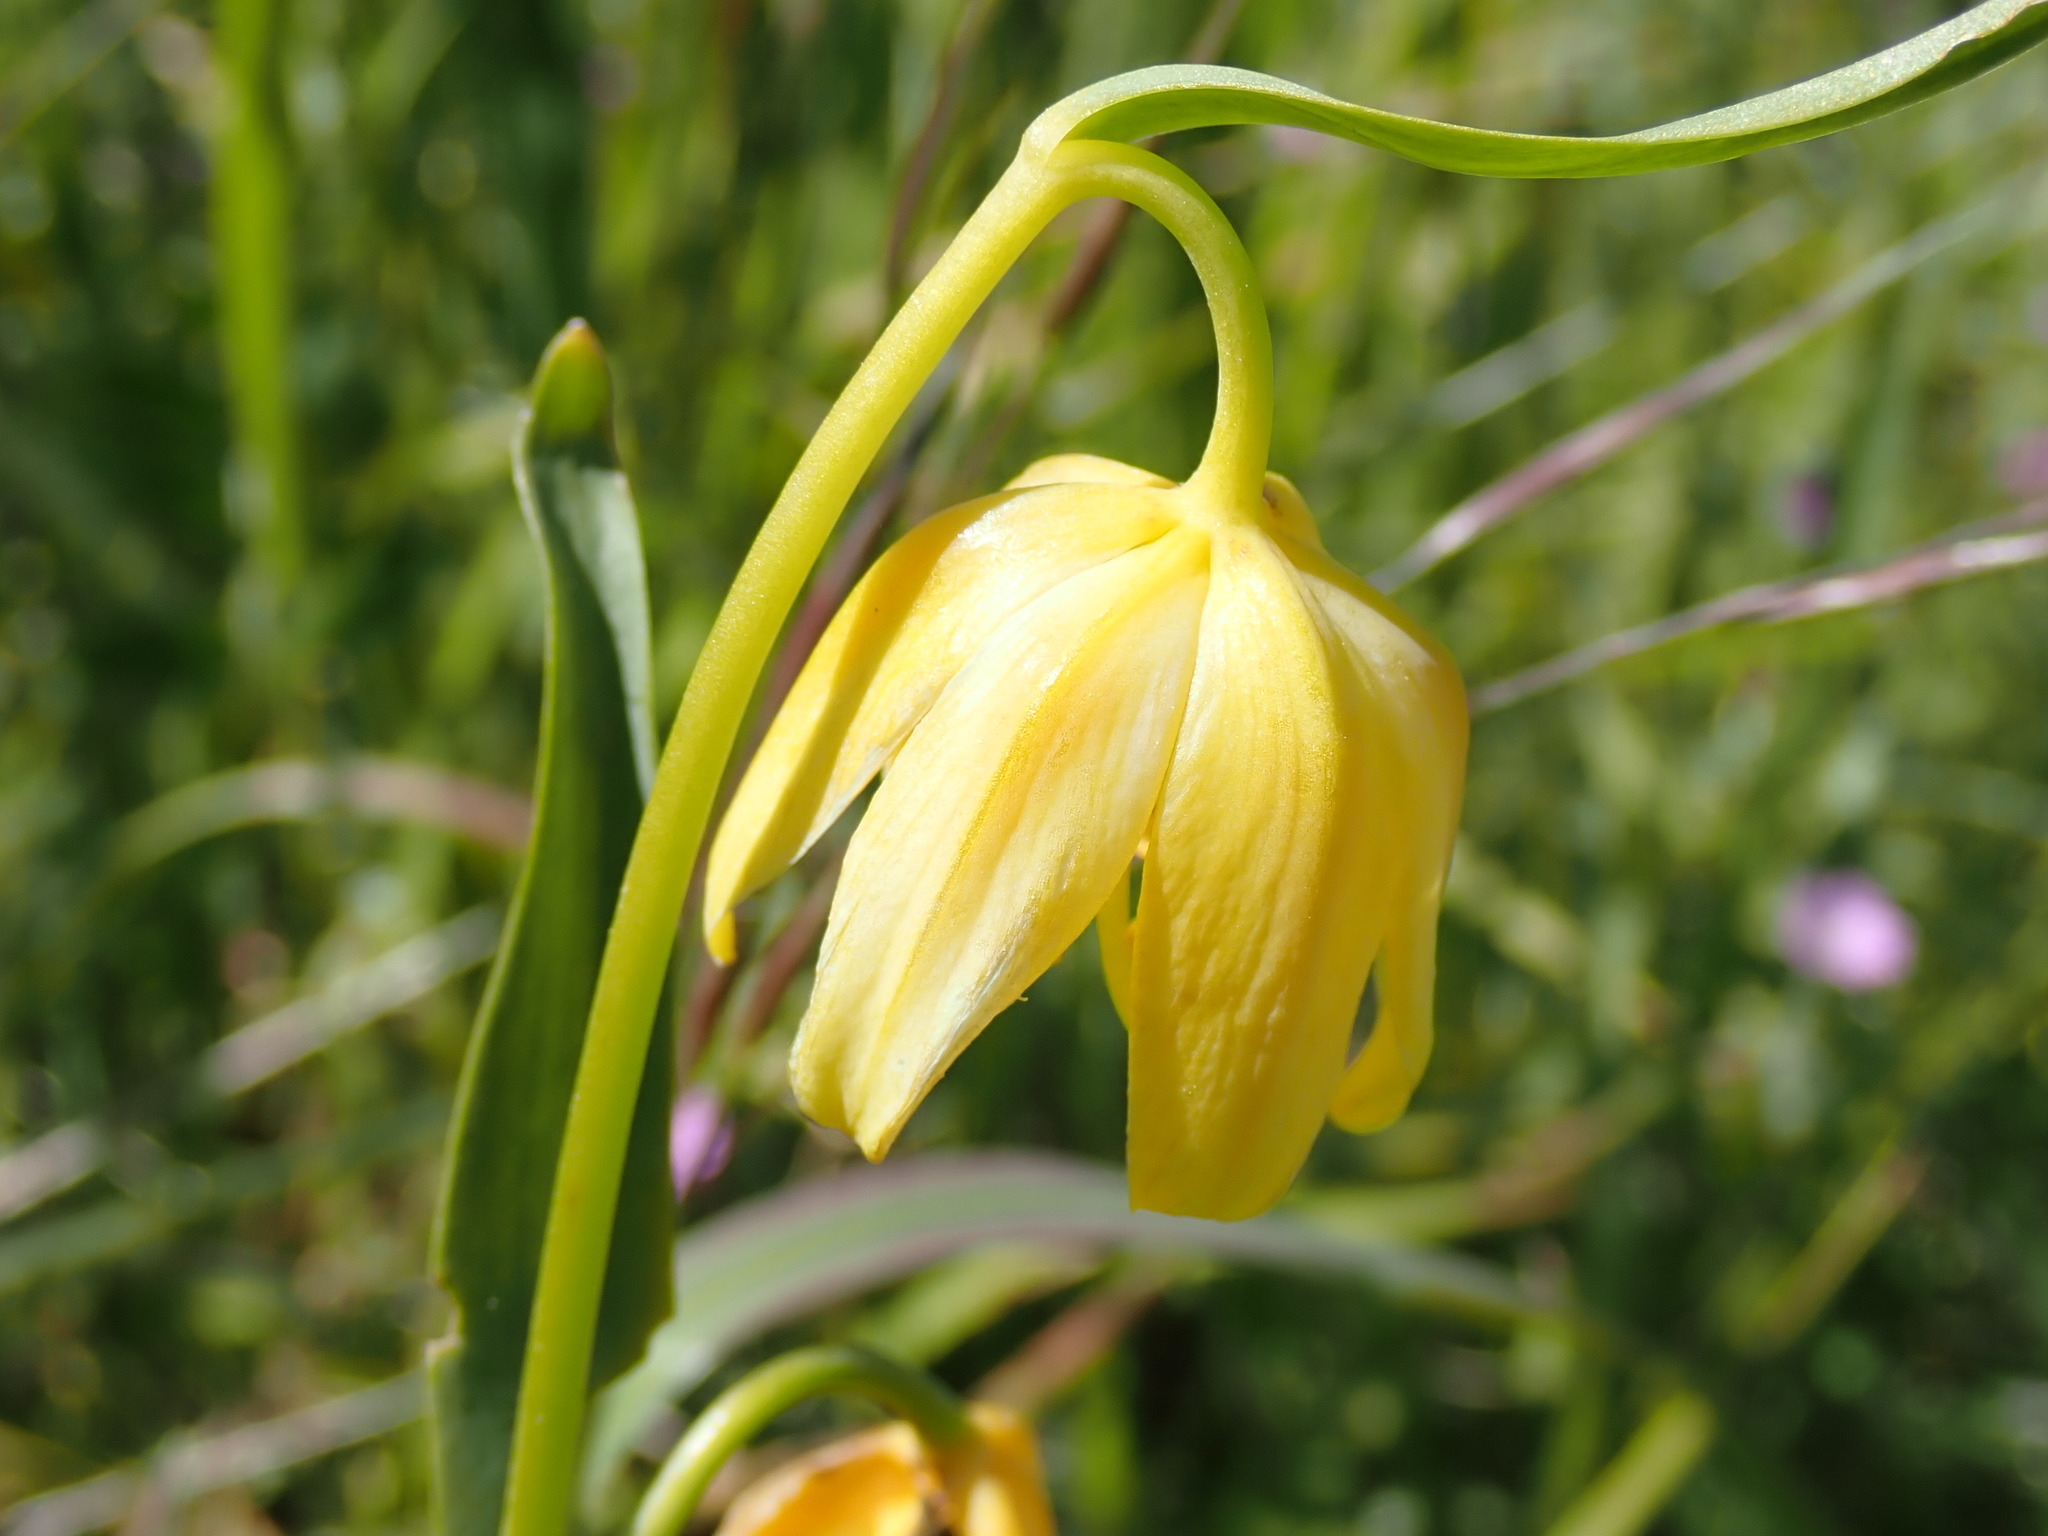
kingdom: Plantae
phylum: Tracheophyta
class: Liliopsida
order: Liliales
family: Liliaceae
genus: Fritillaria
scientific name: Fritillaria affinis
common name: Ojai fritillary
